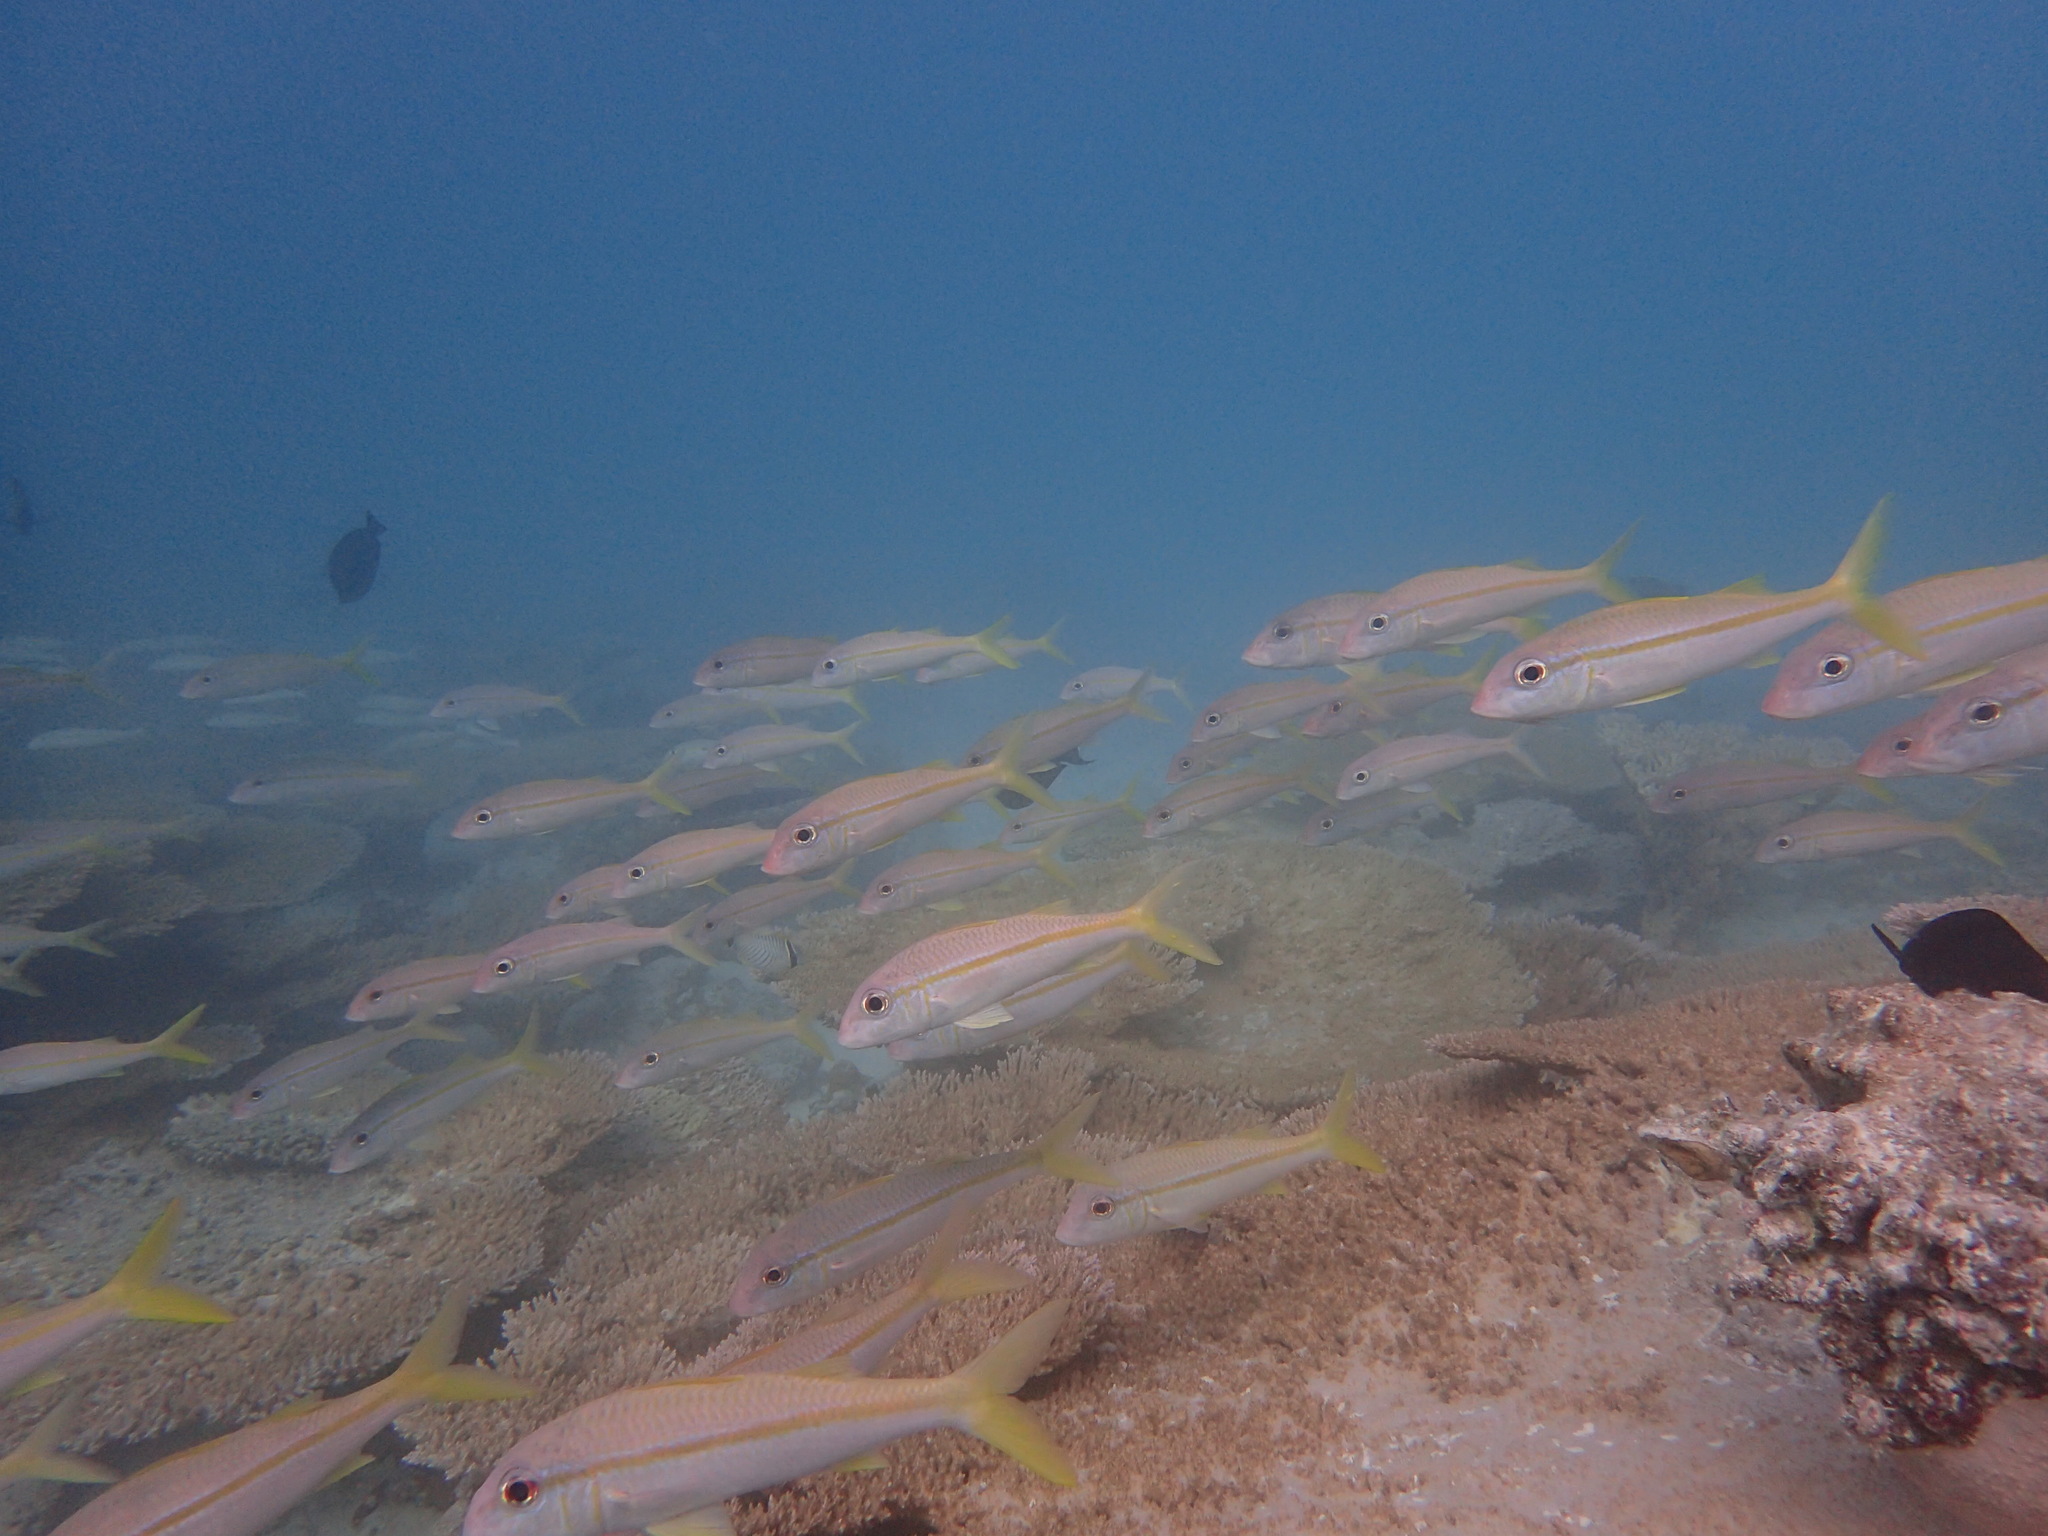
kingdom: Animalia
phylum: Chordata
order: Perciformes
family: Mullidae
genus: Mulloidichthys
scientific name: Mulloidichthys vanicolensis
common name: Yellowfin goatfish
